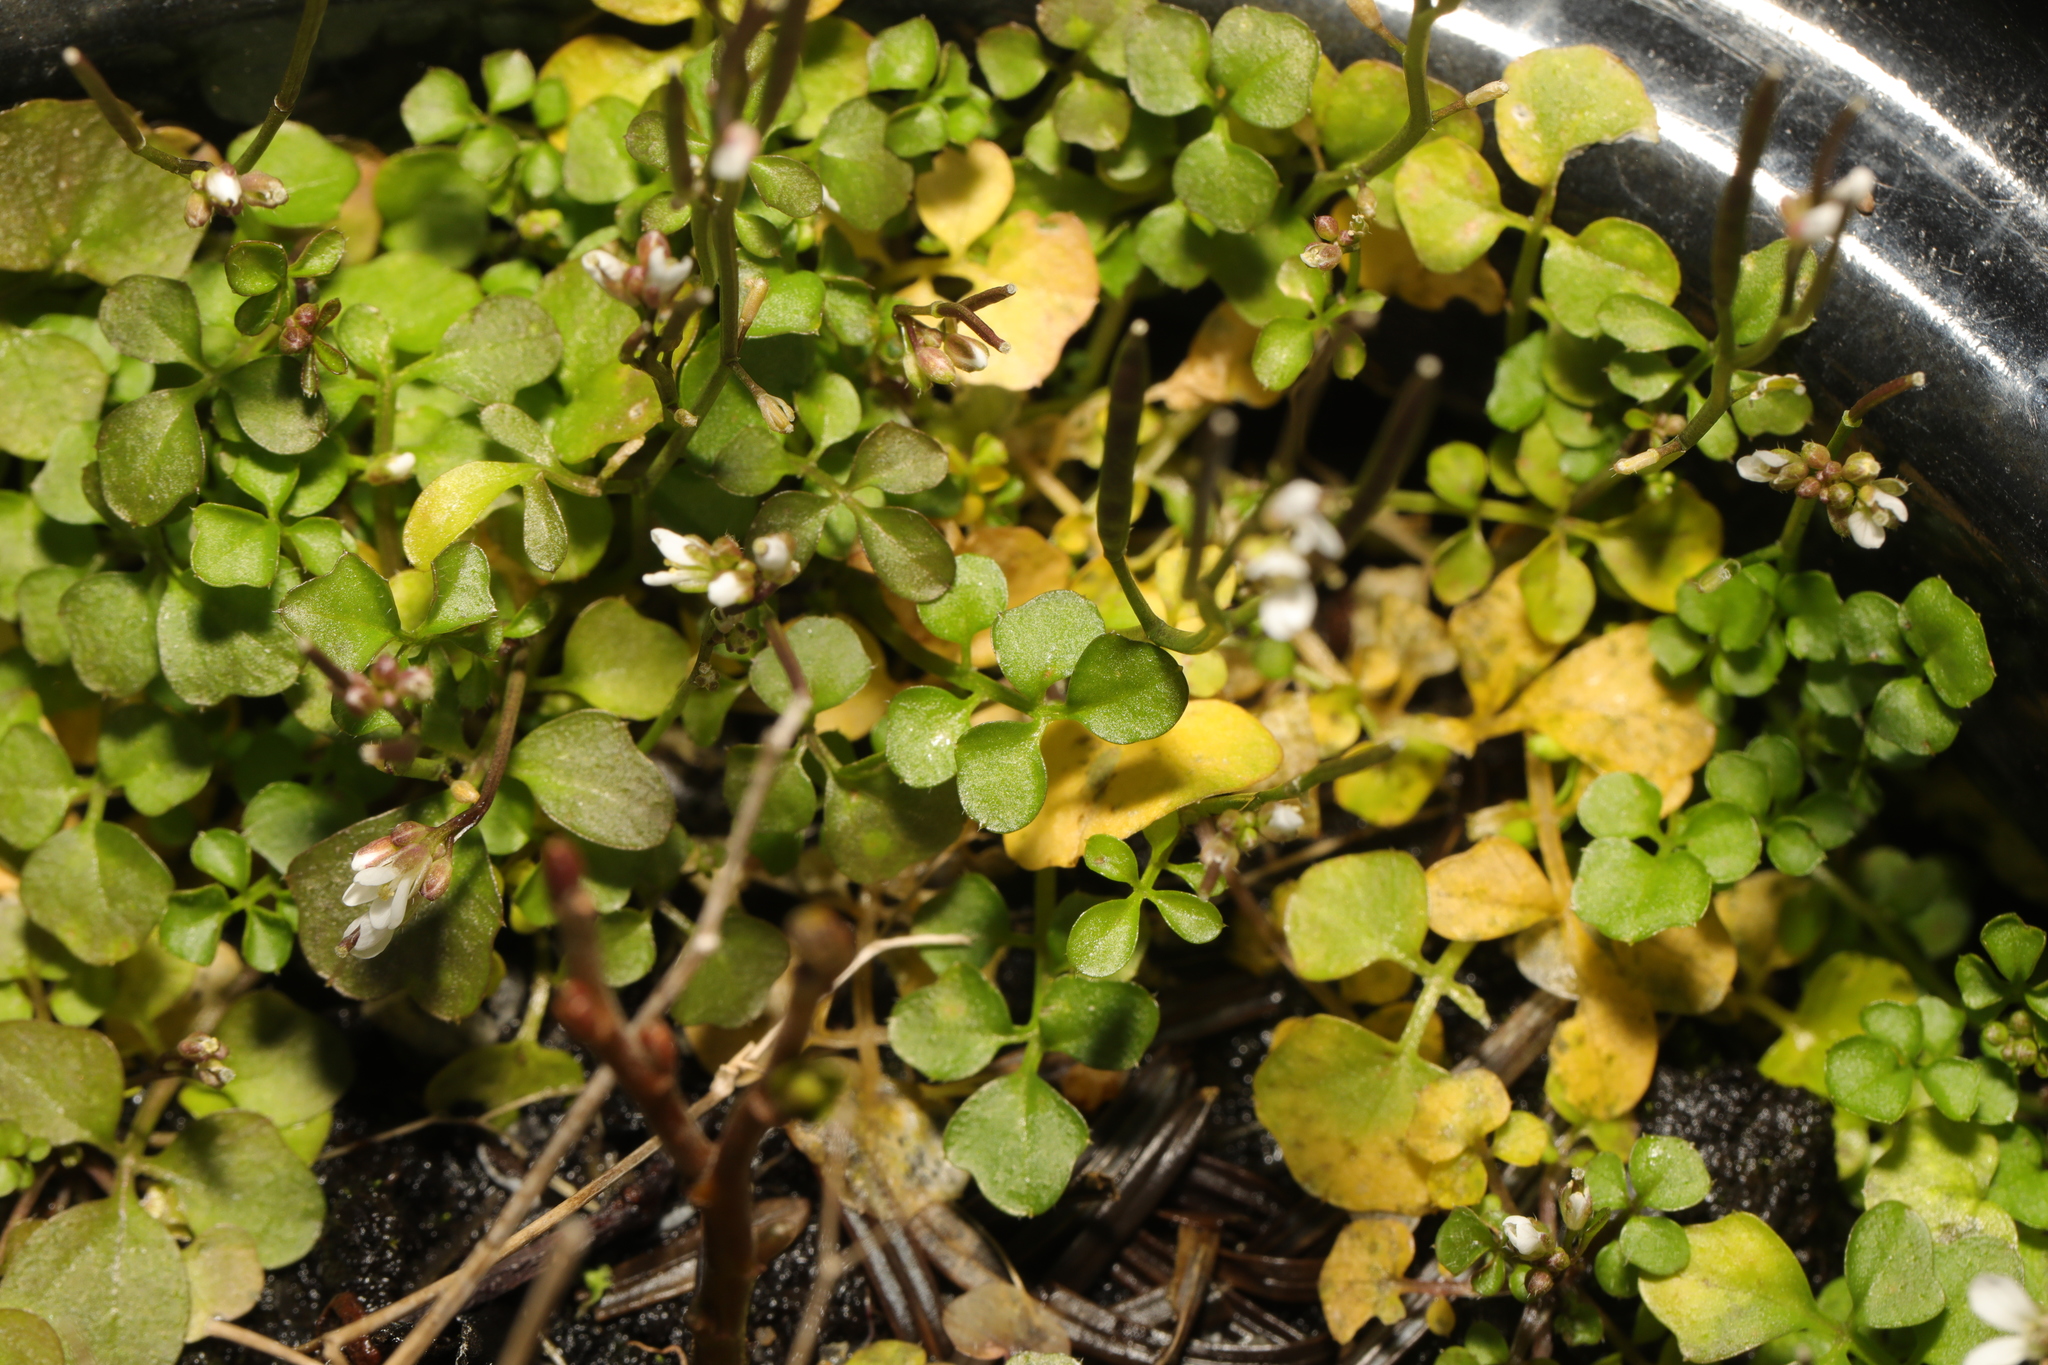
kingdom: Plantae
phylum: Tracheophyta
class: Magnoliopsida
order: Brassicales
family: Brassicaceae
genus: Cardamine
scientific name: Cardamine hirsuta
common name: Hairy bittercress
